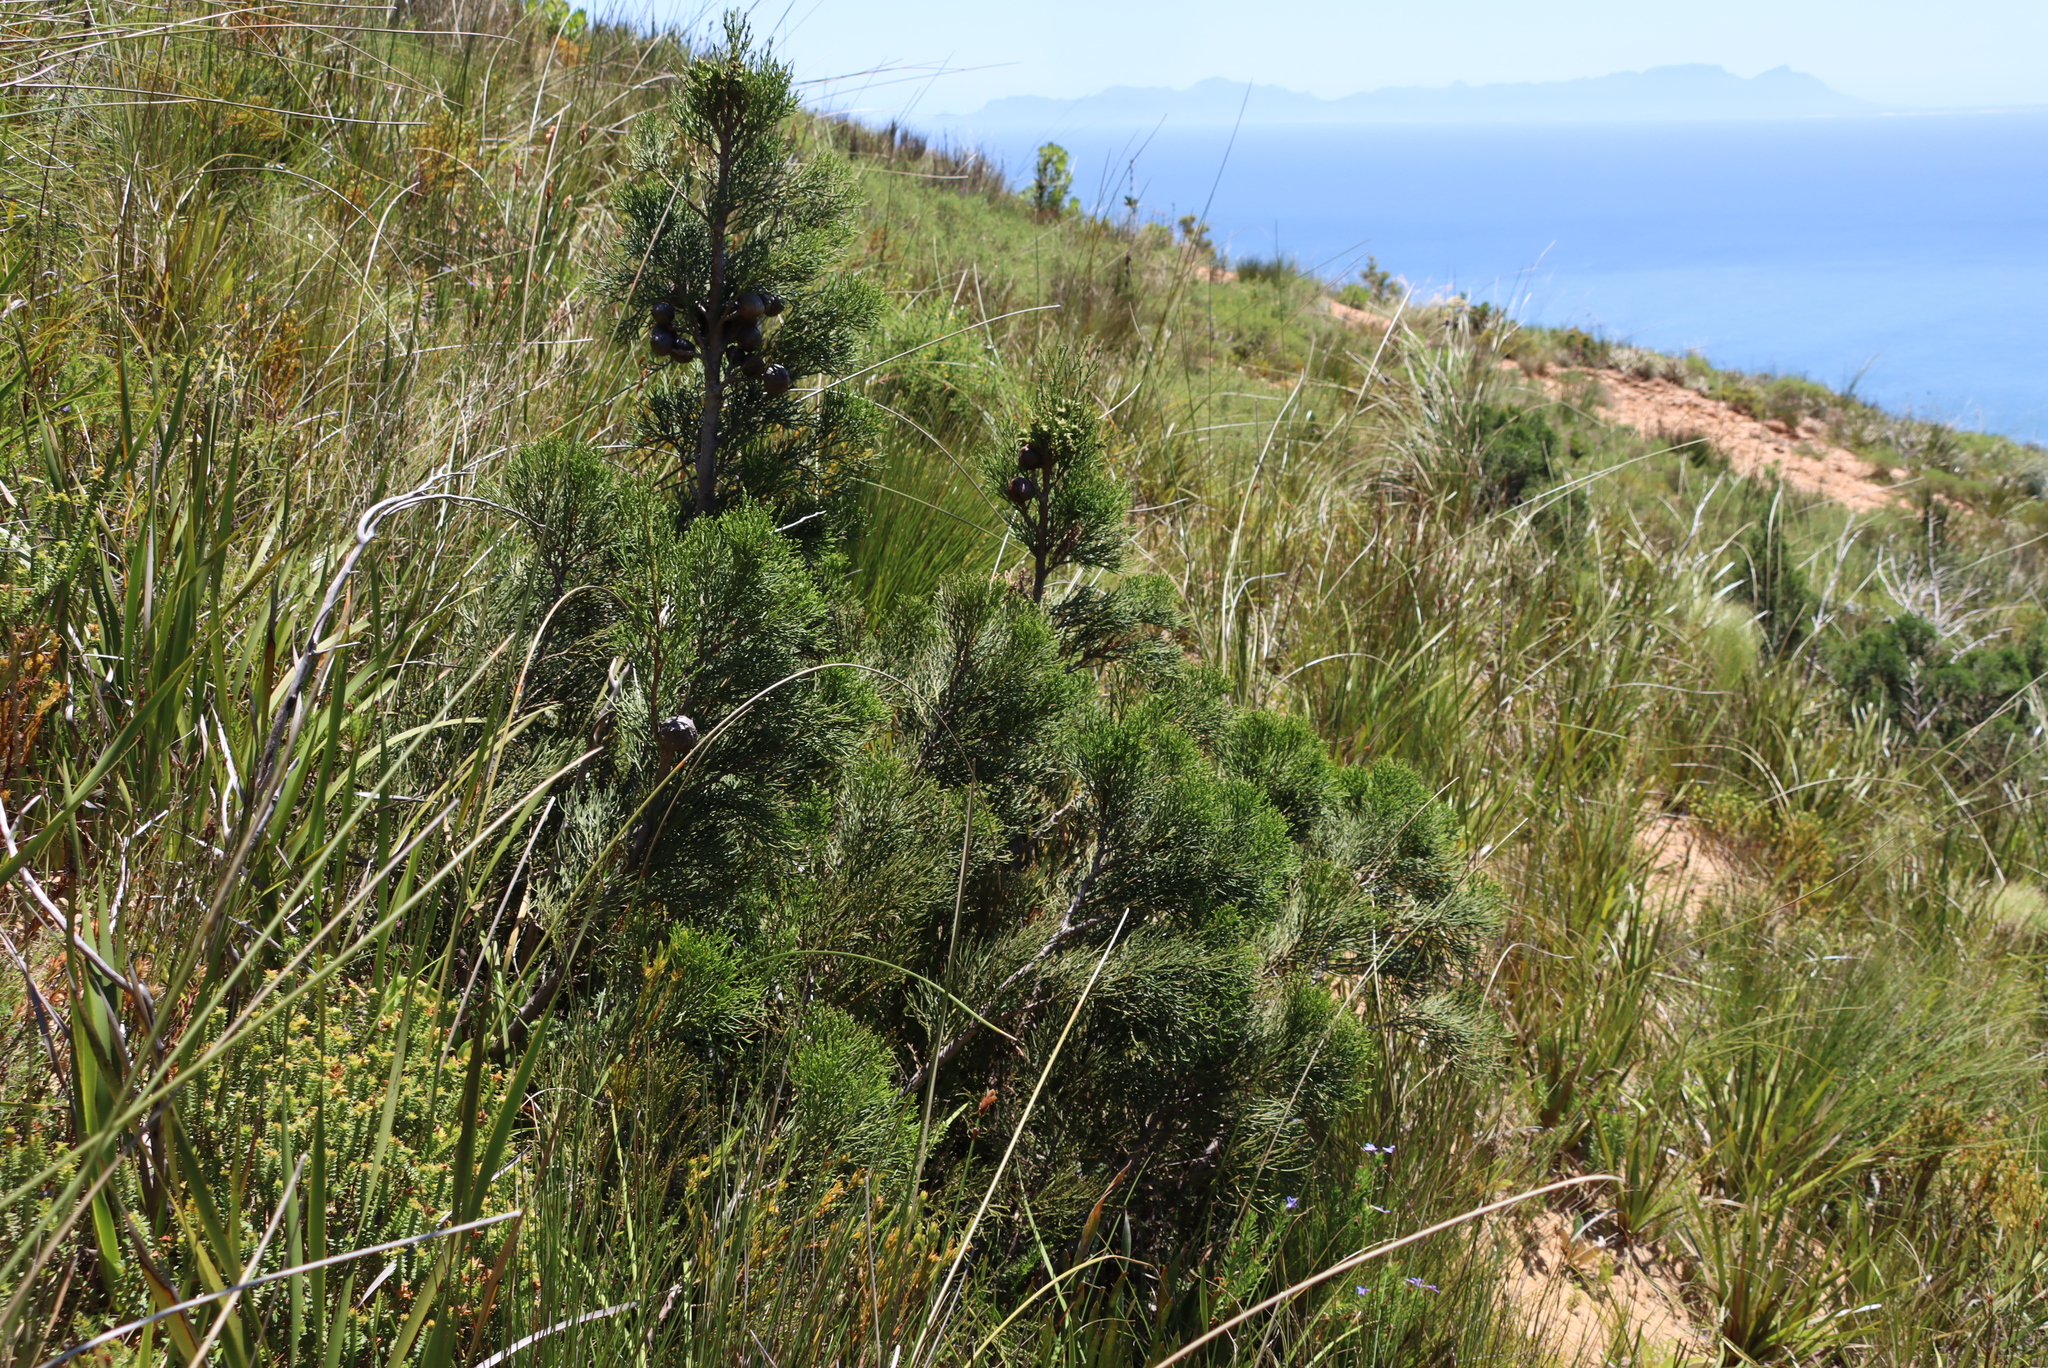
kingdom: Plantae
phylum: Tracheophyta
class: Pinopsida
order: Pinales
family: Cupressaceae
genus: Widdringtonia
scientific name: Widdringtonia nodiflora
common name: Cape cypress
